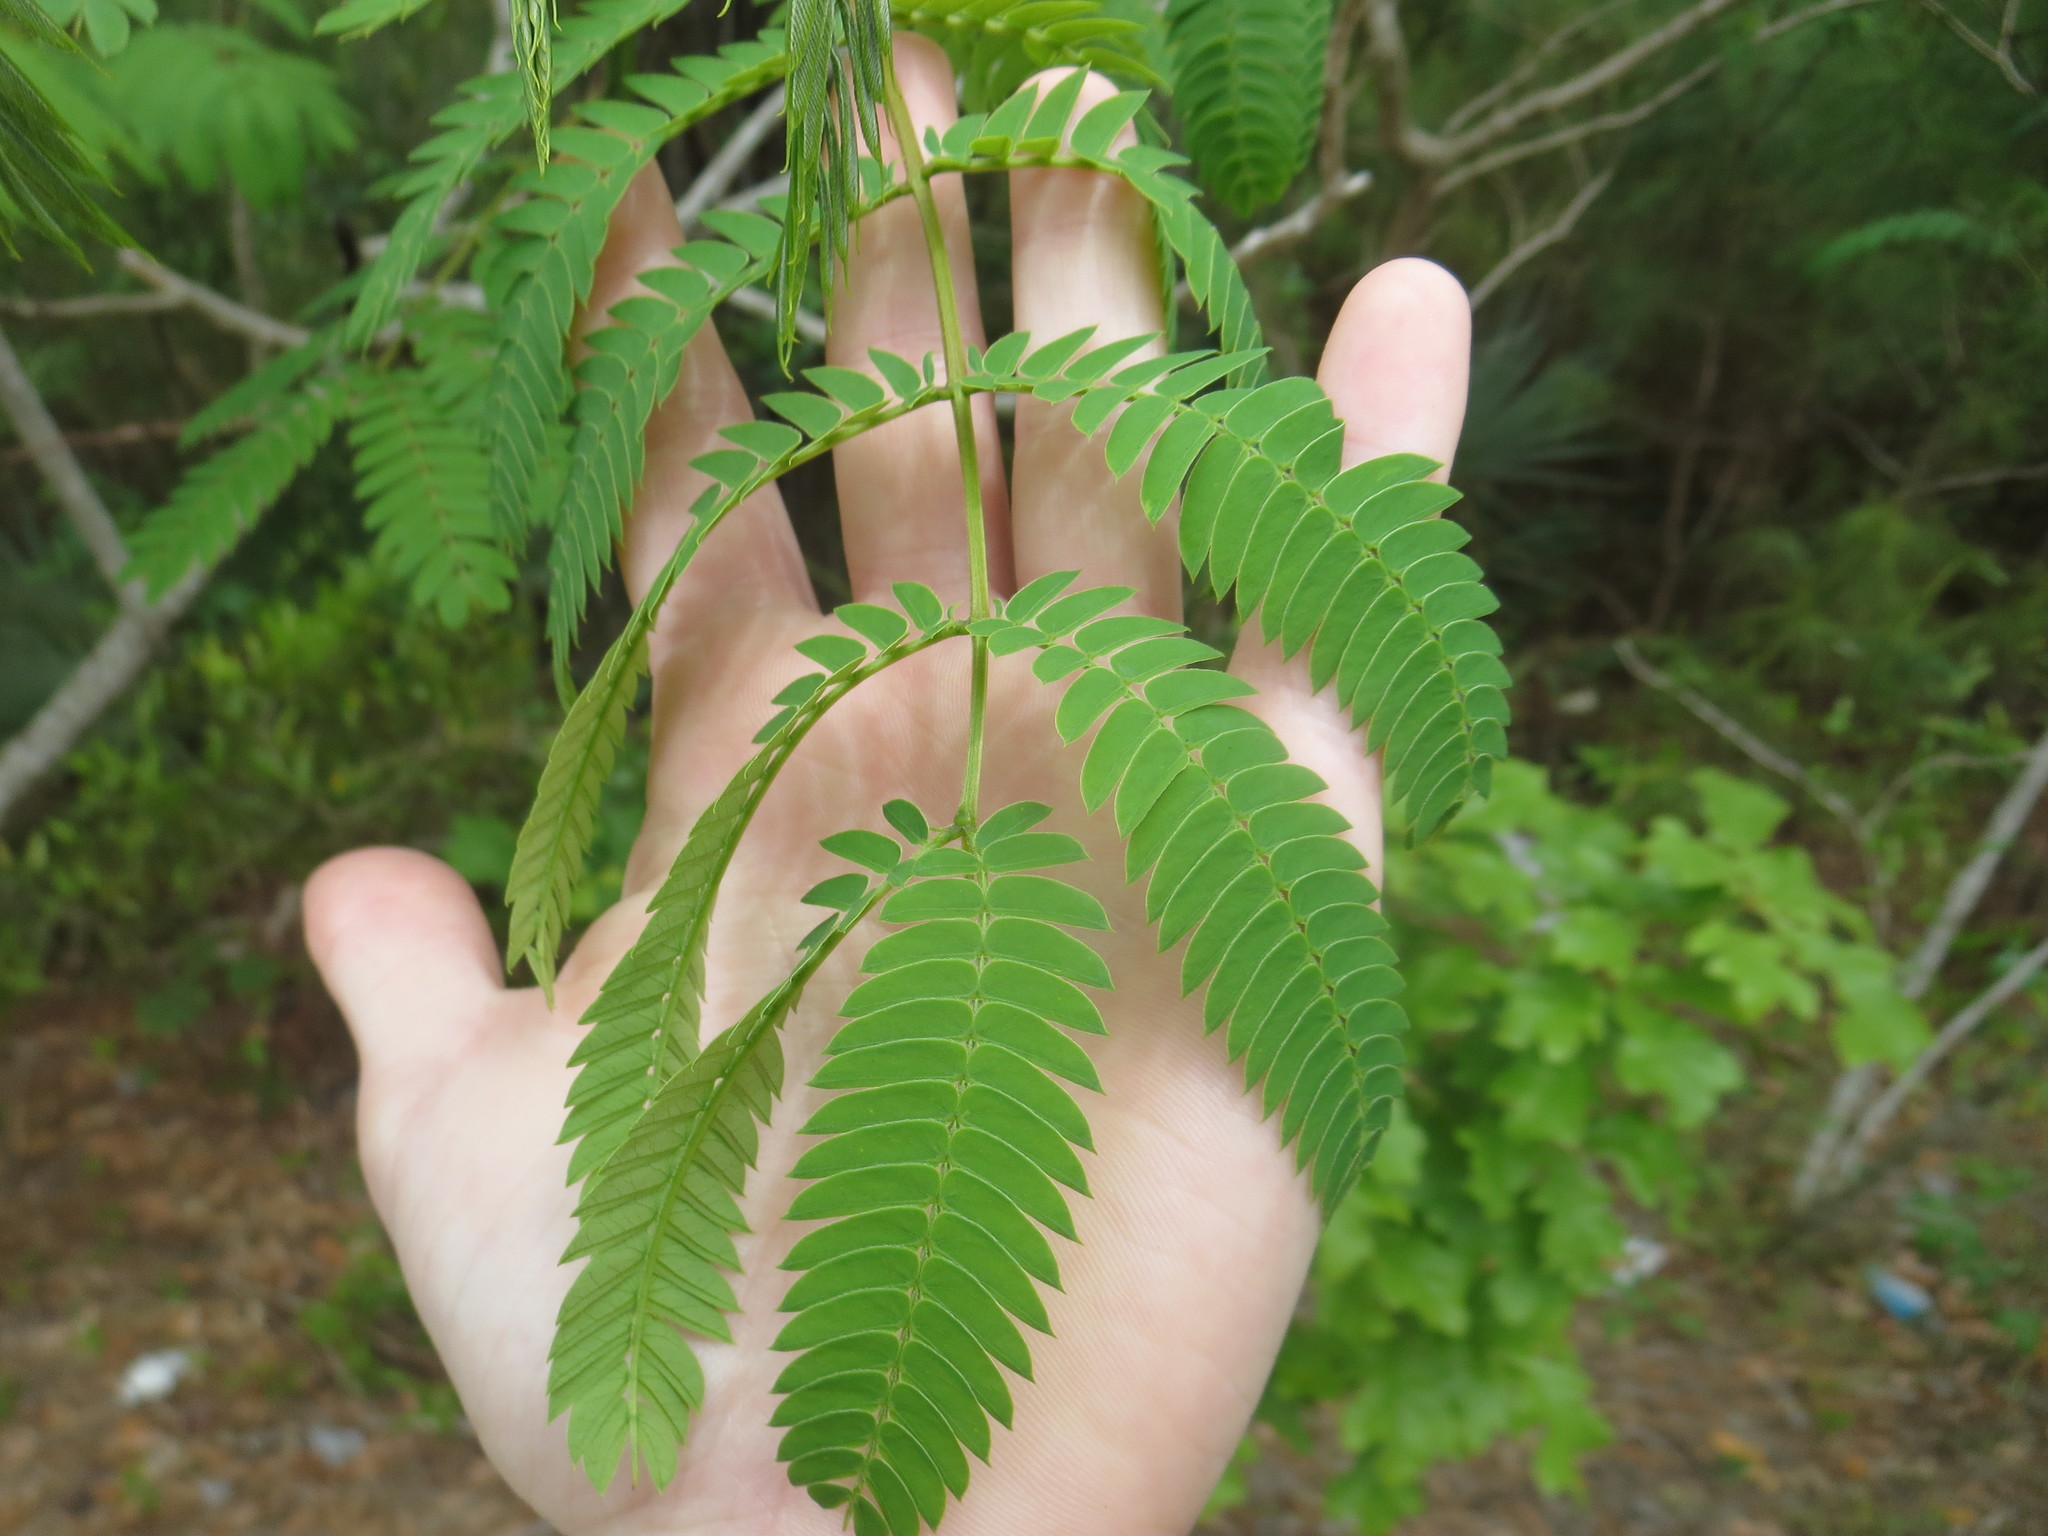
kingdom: Plantae
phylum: Tracheophyta
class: Magnoliopsida
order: Fabales
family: Fabaceae
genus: Albizia
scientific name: Albizia julibrissin
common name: Silktree
